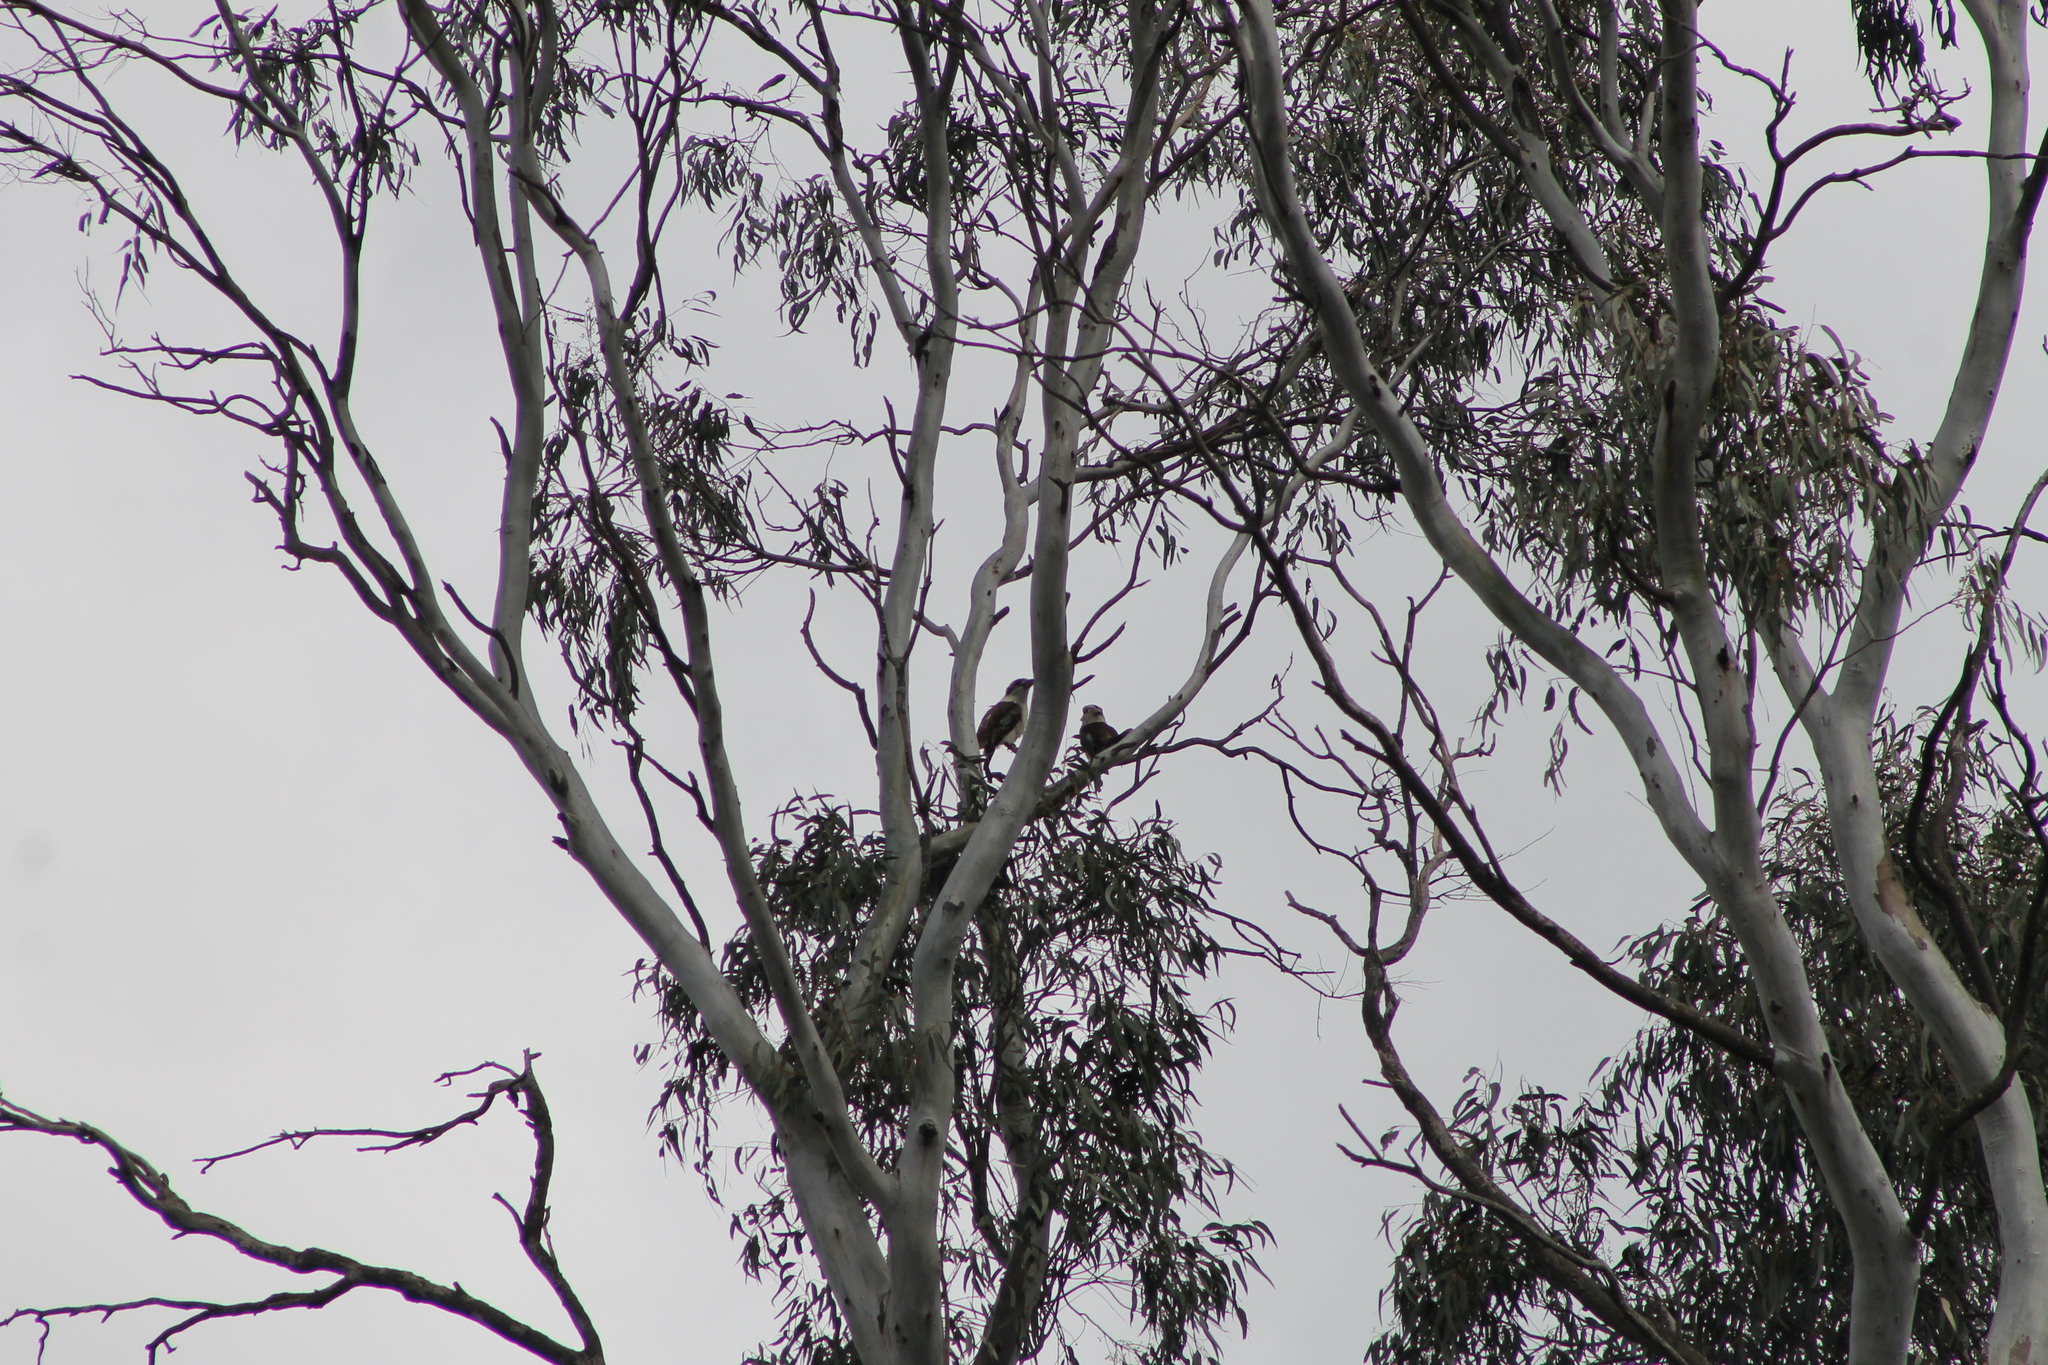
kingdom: Animalia
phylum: Chordata
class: Aves
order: Coraciiformes
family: Alcedinidae
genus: Dacelo
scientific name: Dacelo novaeguineae
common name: Laughing kookaburra
